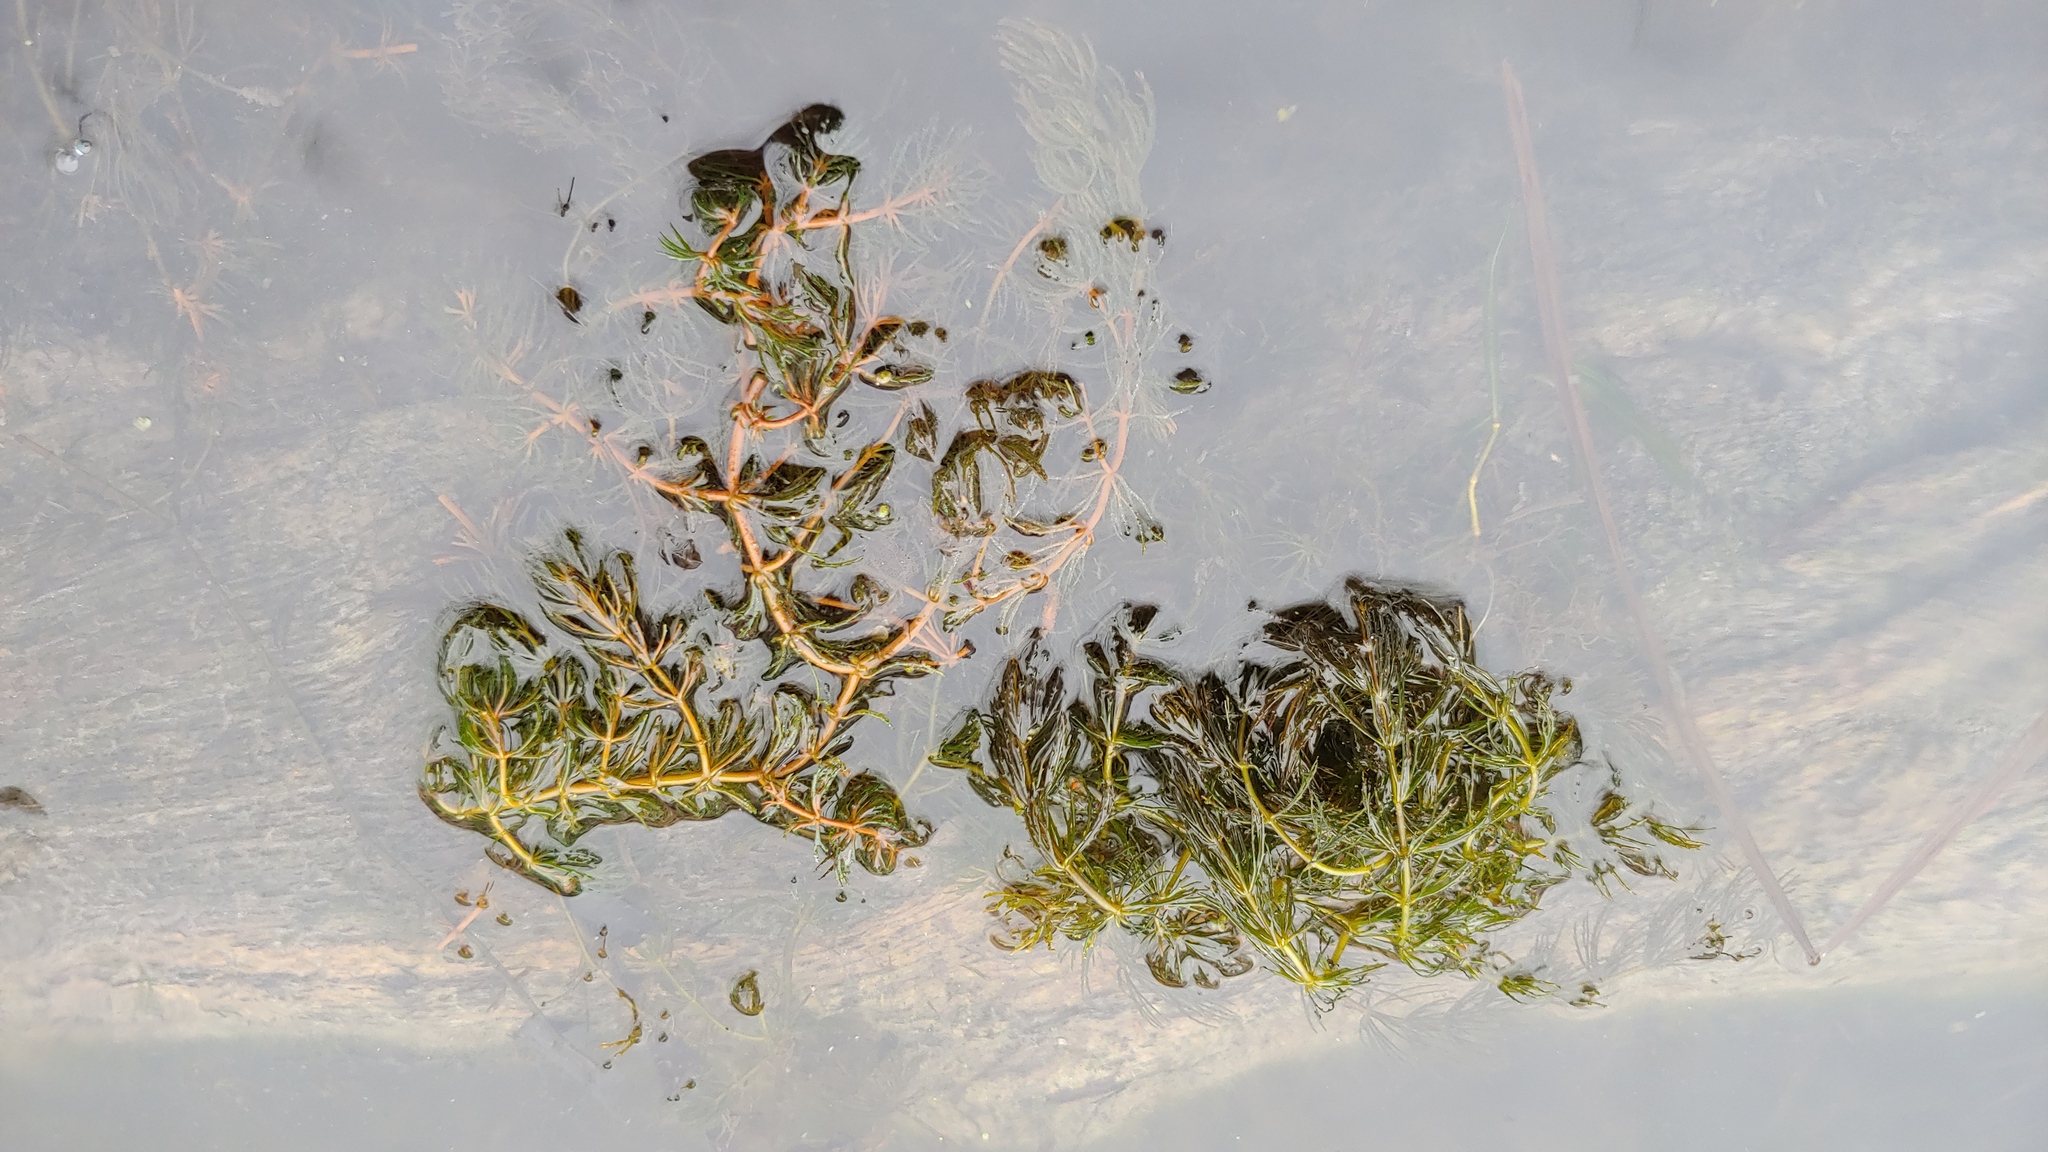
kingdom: Plantae
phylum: Tracheophyta
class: Magnoliopsida
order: Ceratophyllales
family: Ceratophyllaceae
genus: Ceratophyllum
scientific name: Ceratophyllum demersum
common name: Rigid hornwort
